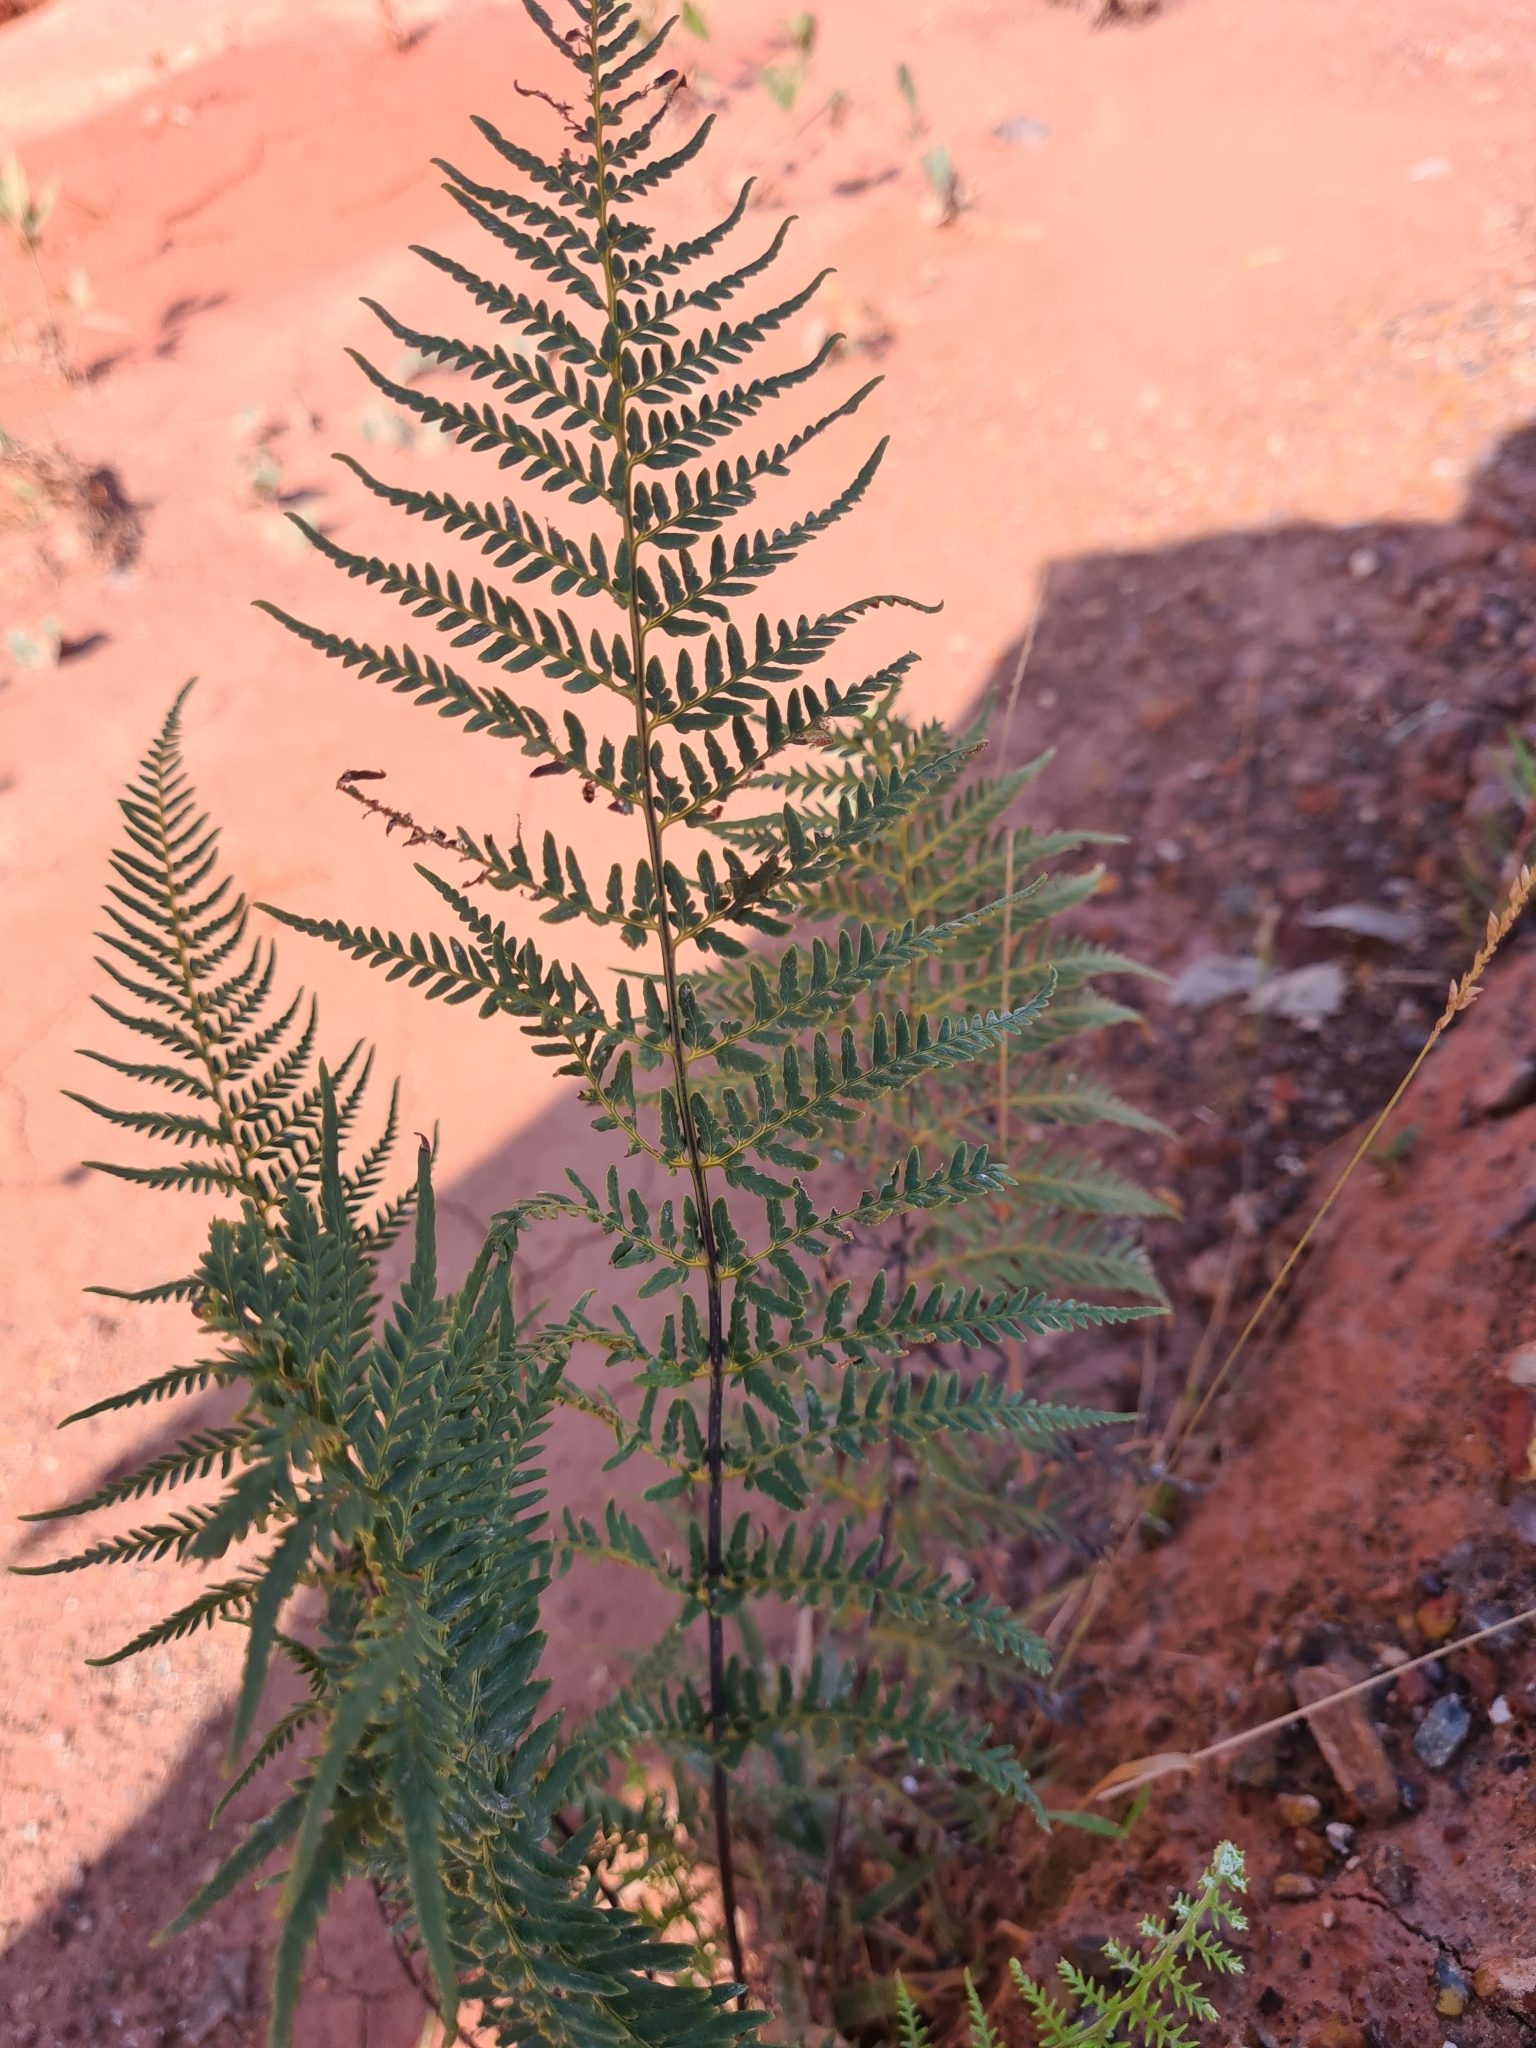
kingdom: Plantae
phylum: Tracheophyta
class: Polypodiopsida
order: Polypodiales
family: Pteridaceae
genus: Pityrogramma
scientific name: Pityrogramma calomelanos
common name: Dixie silverback fern
